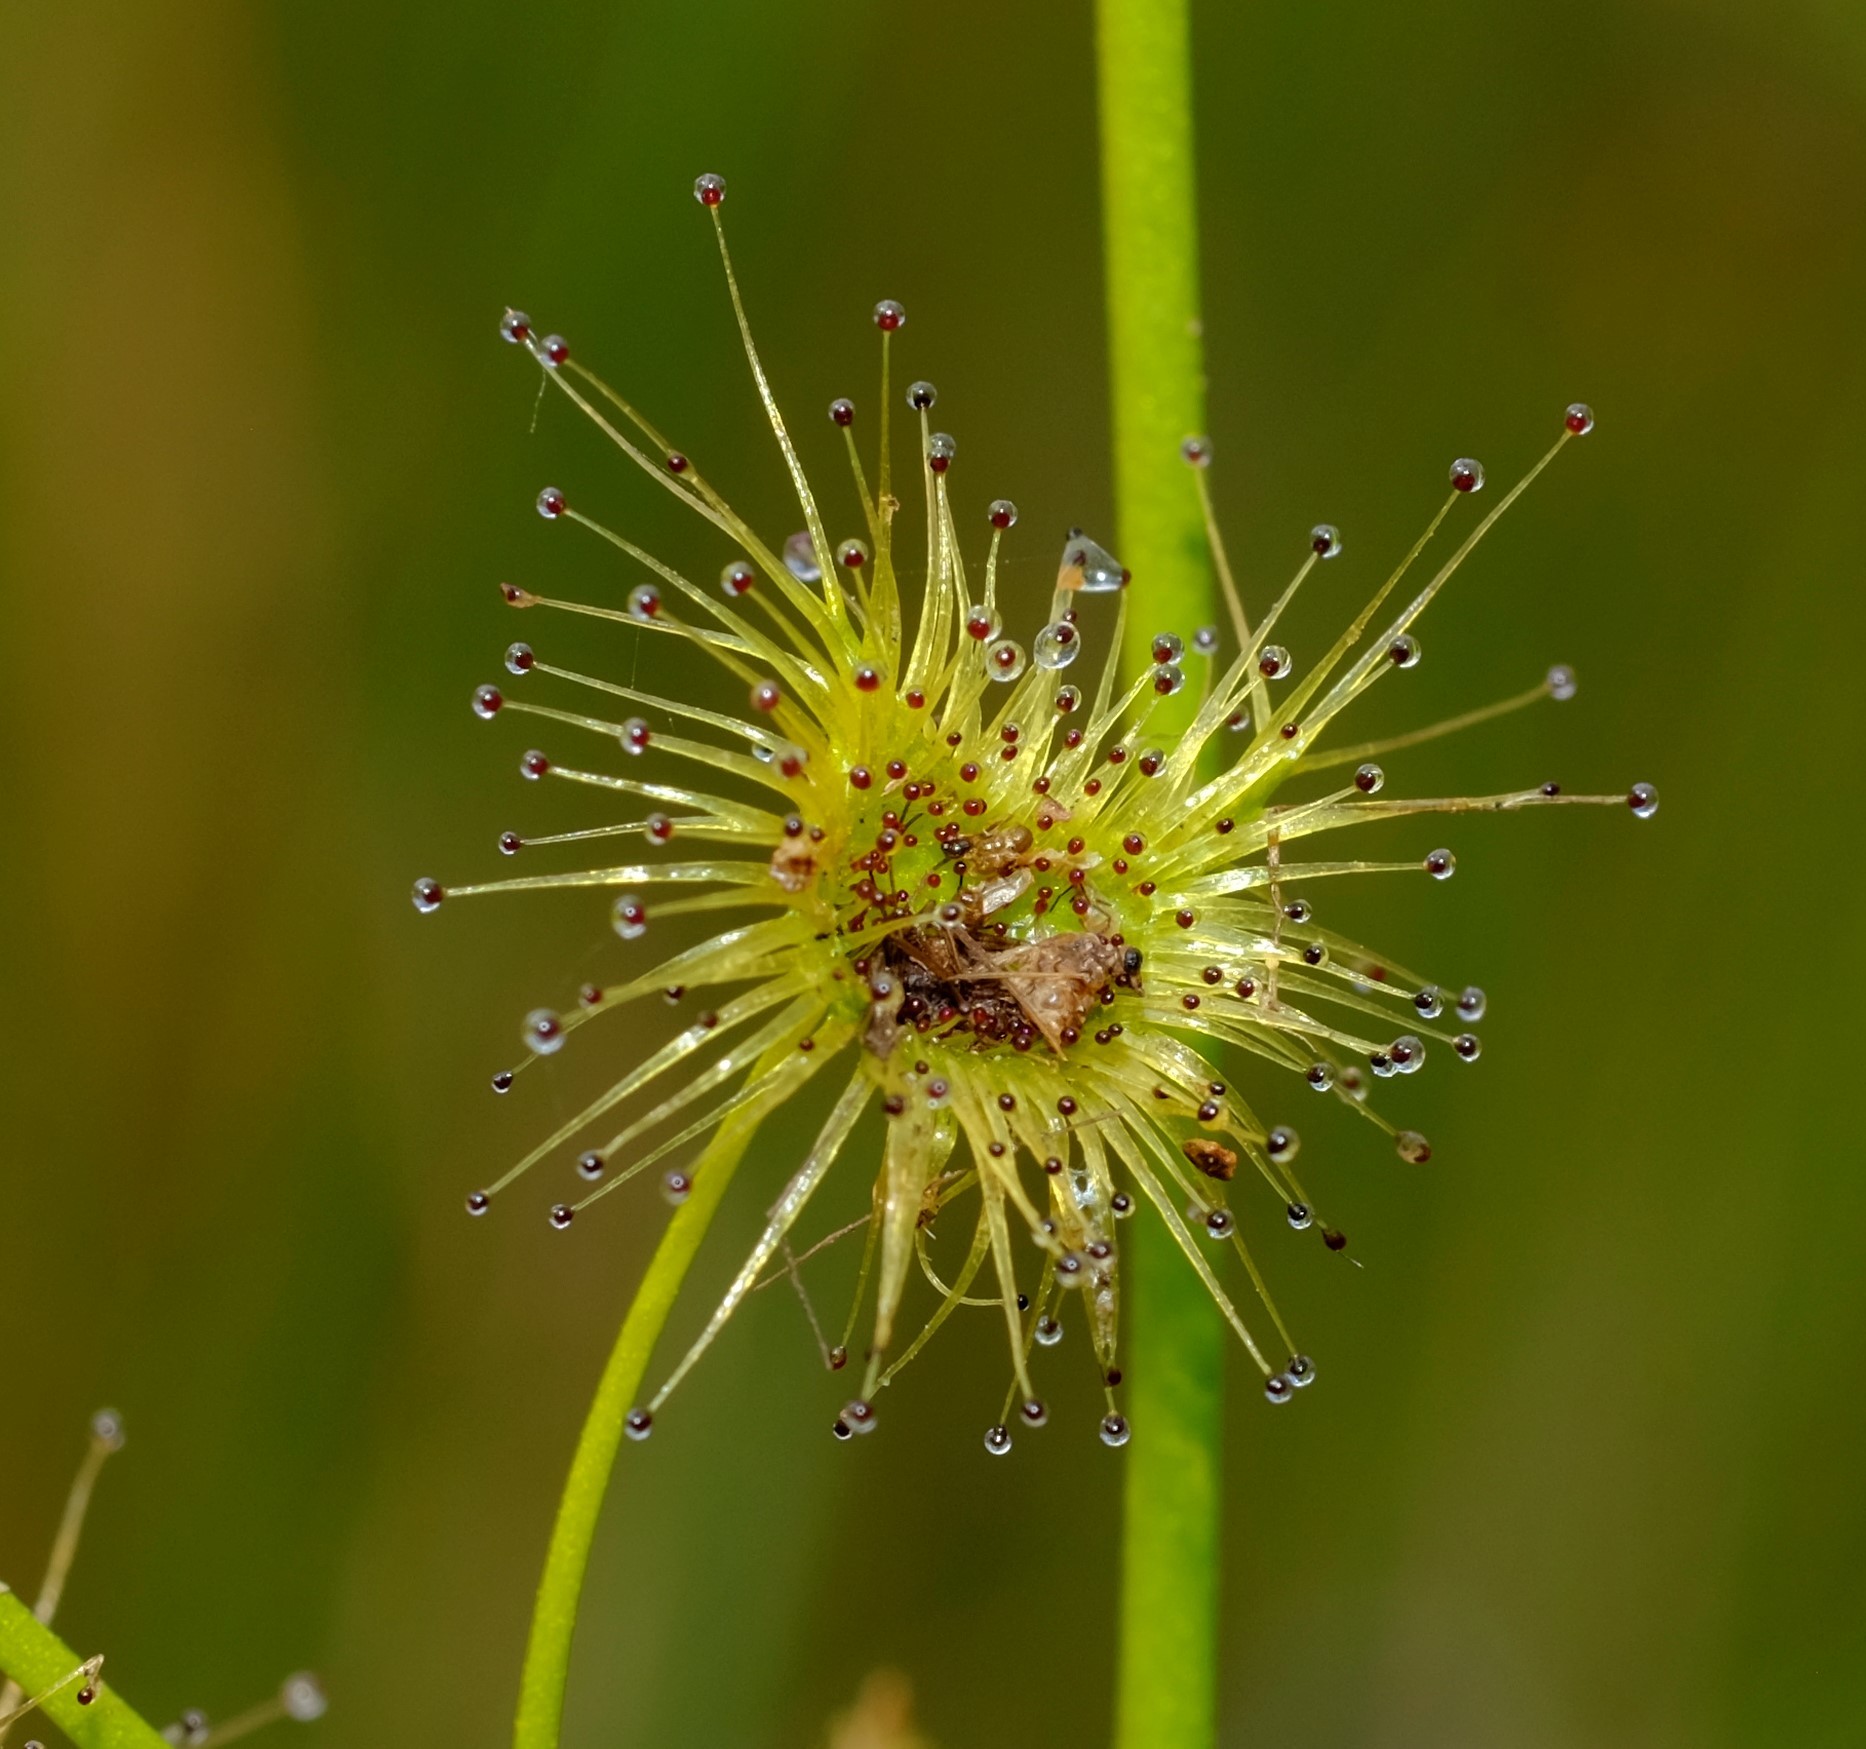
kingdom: Plantae
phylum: Tracheophyta
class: Magnoliopsida
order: Caryophyllales
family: Droseraceae
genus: Drosera
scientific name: Drosera peltata
